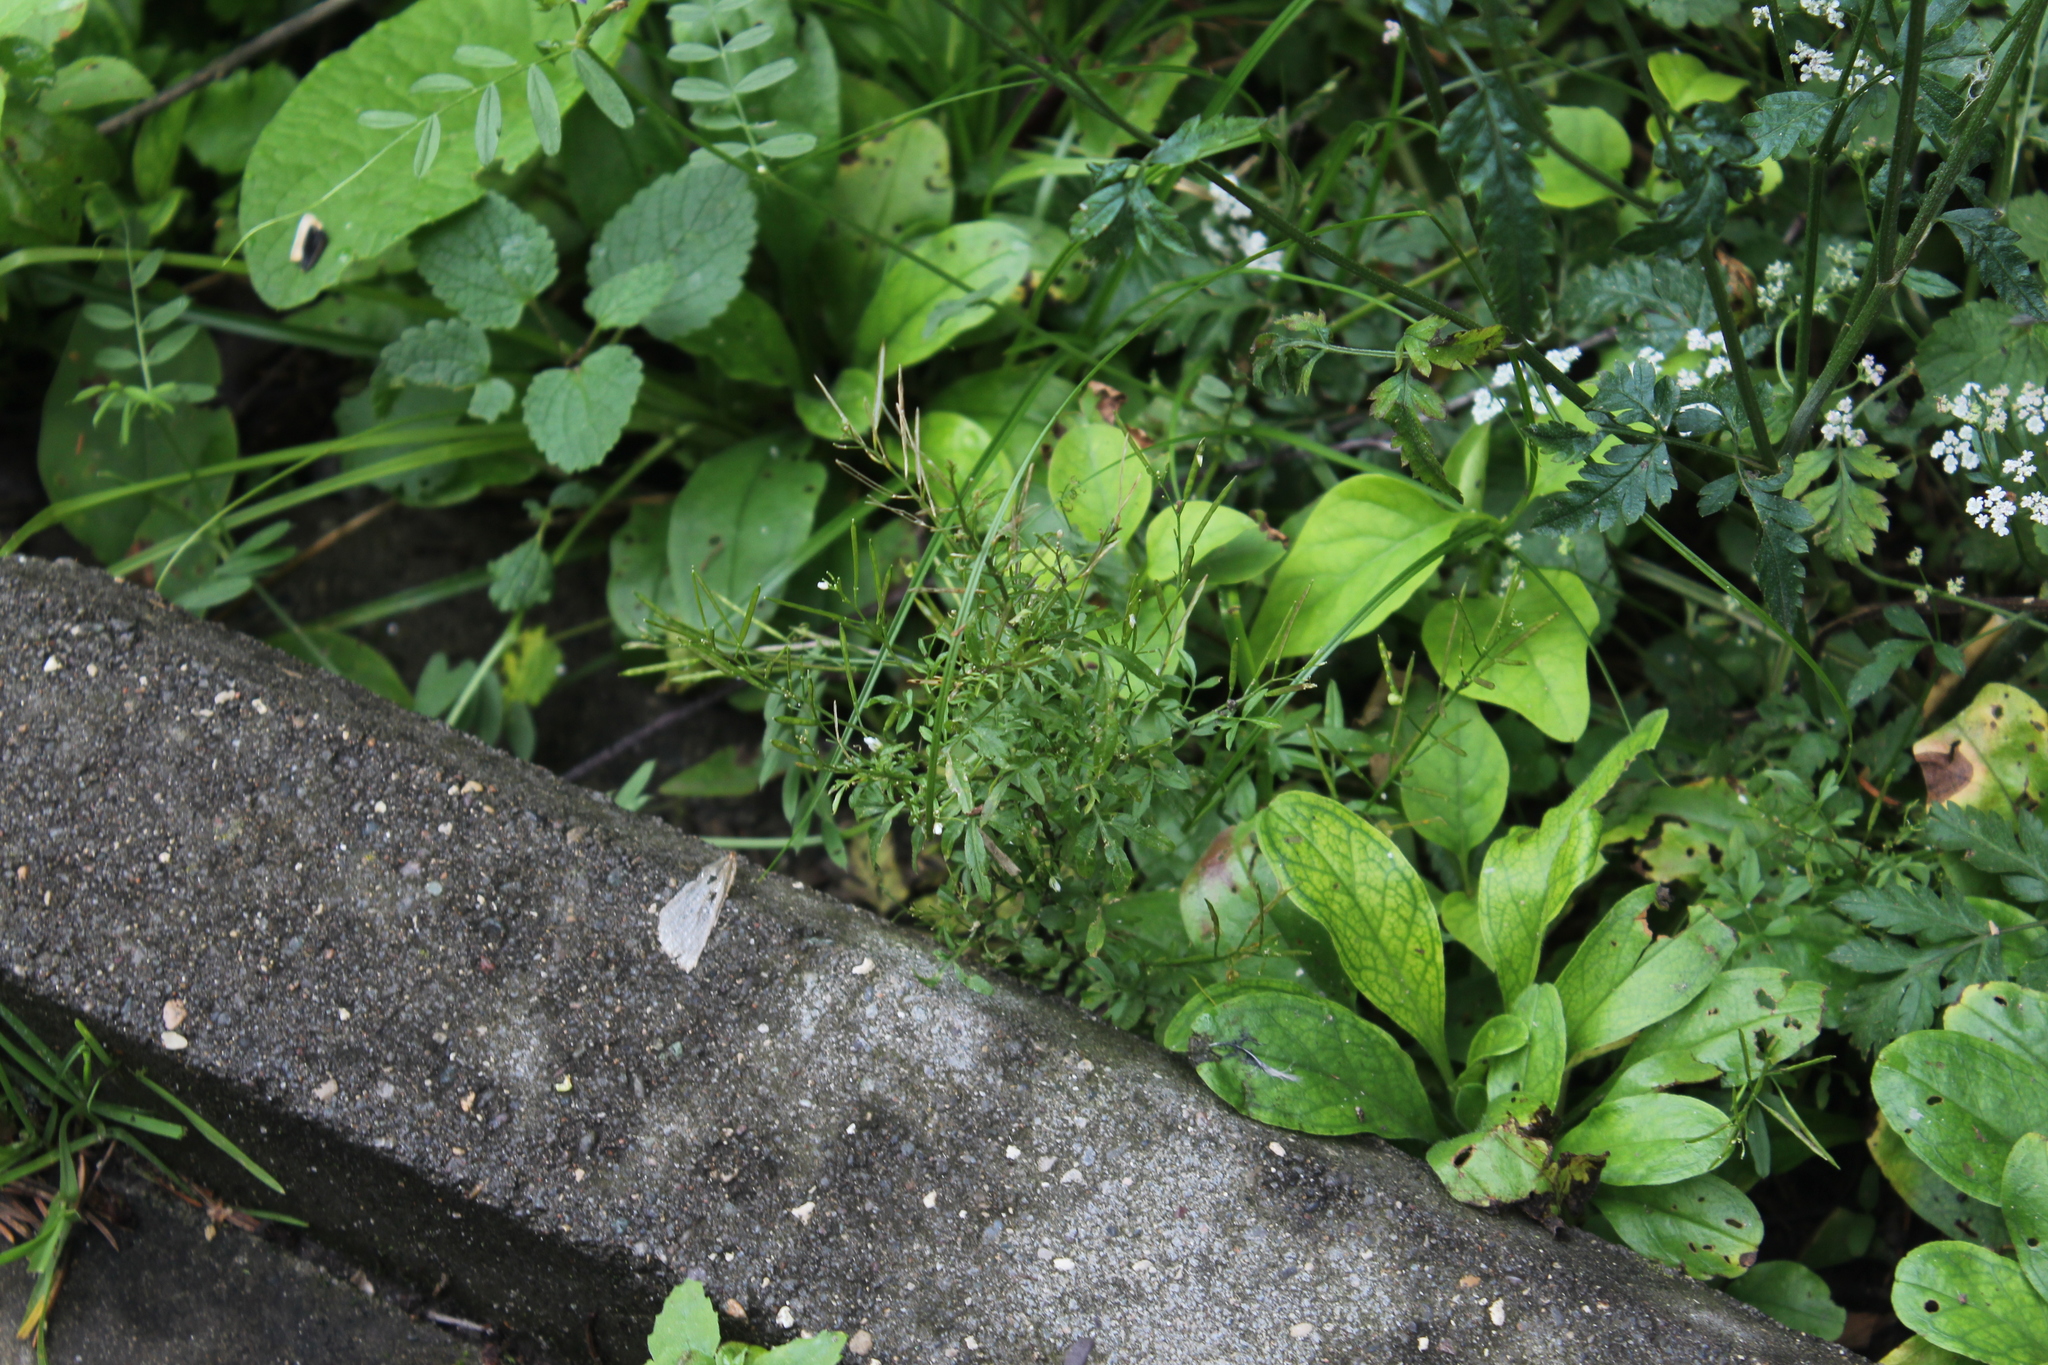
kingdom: Plantae
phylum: Tracheophyta
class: Magnoliopsida
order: Brassicales
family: Brassicaceae
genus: Cardamine
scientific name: Cardamine impatiens
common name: Narrow-leaved bitter-cress
